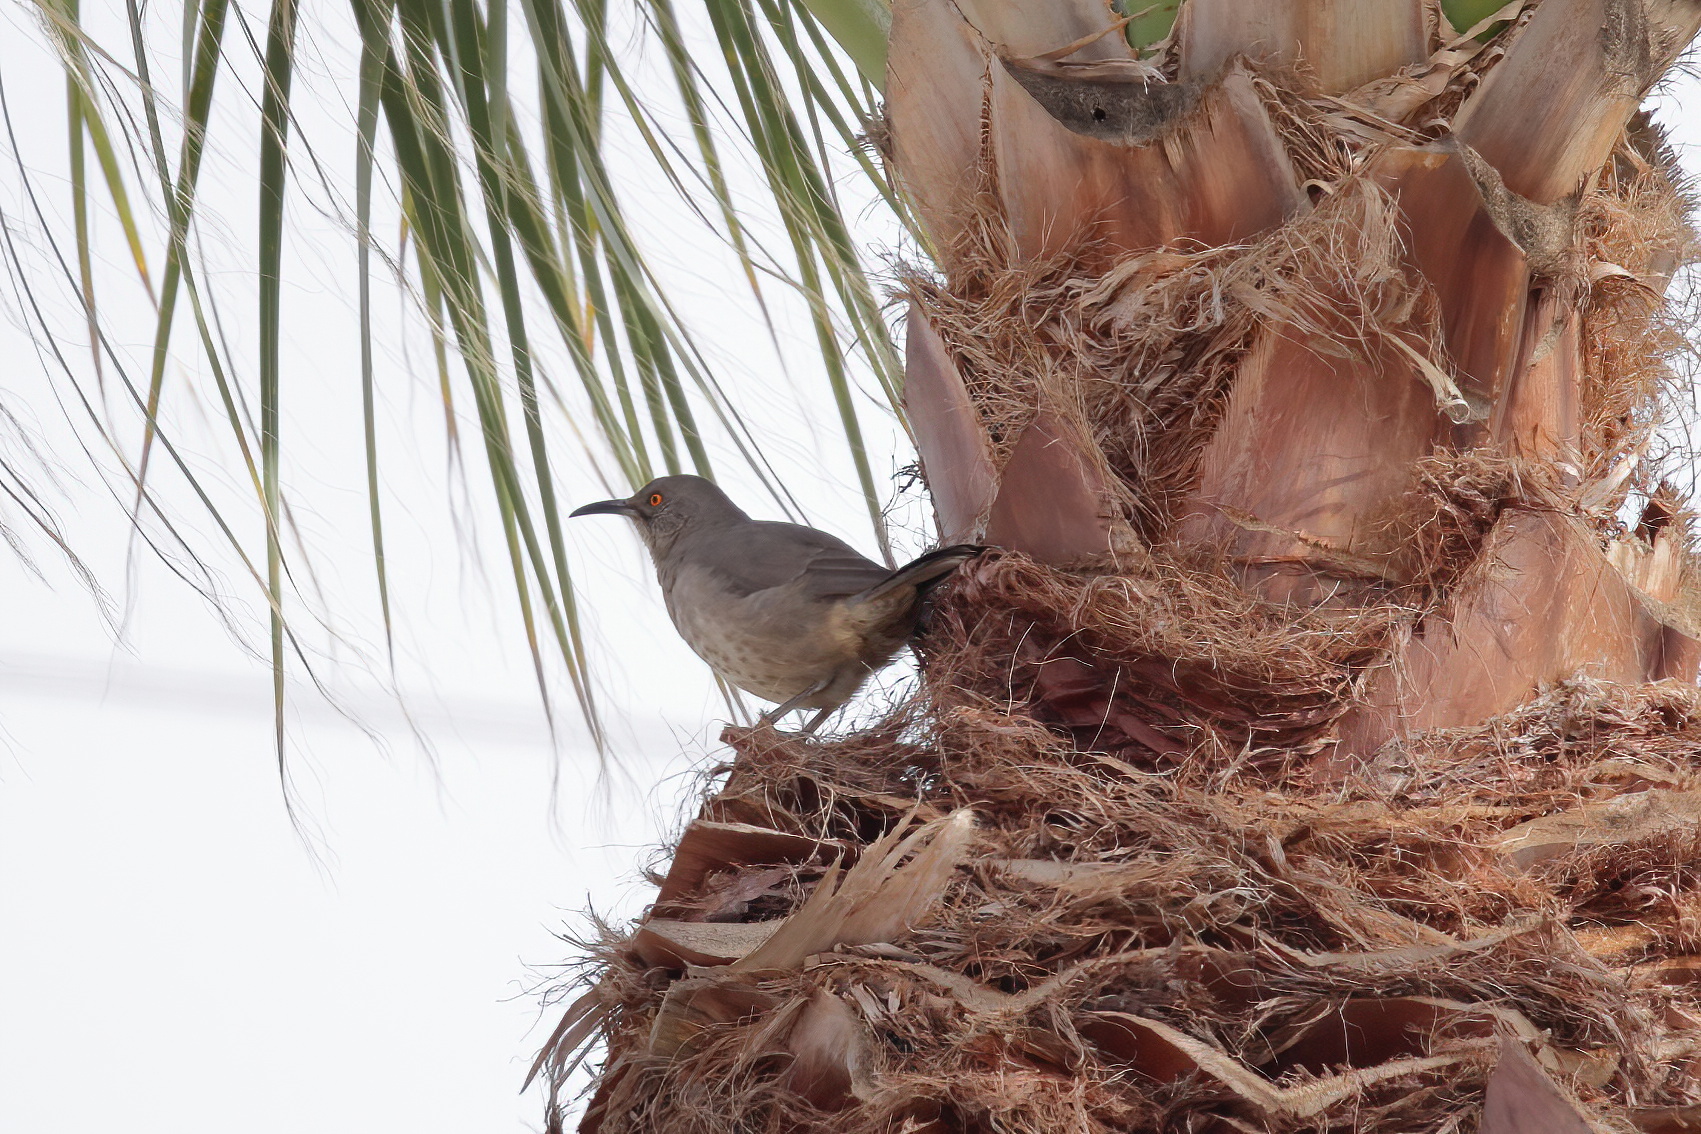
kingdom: Animalia
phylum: Chordata
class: Aves
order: Passeriformes
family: Mimidae
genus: Toxostoma
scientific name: Toxostoma curvirostre
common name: Curve-billed thrasher
